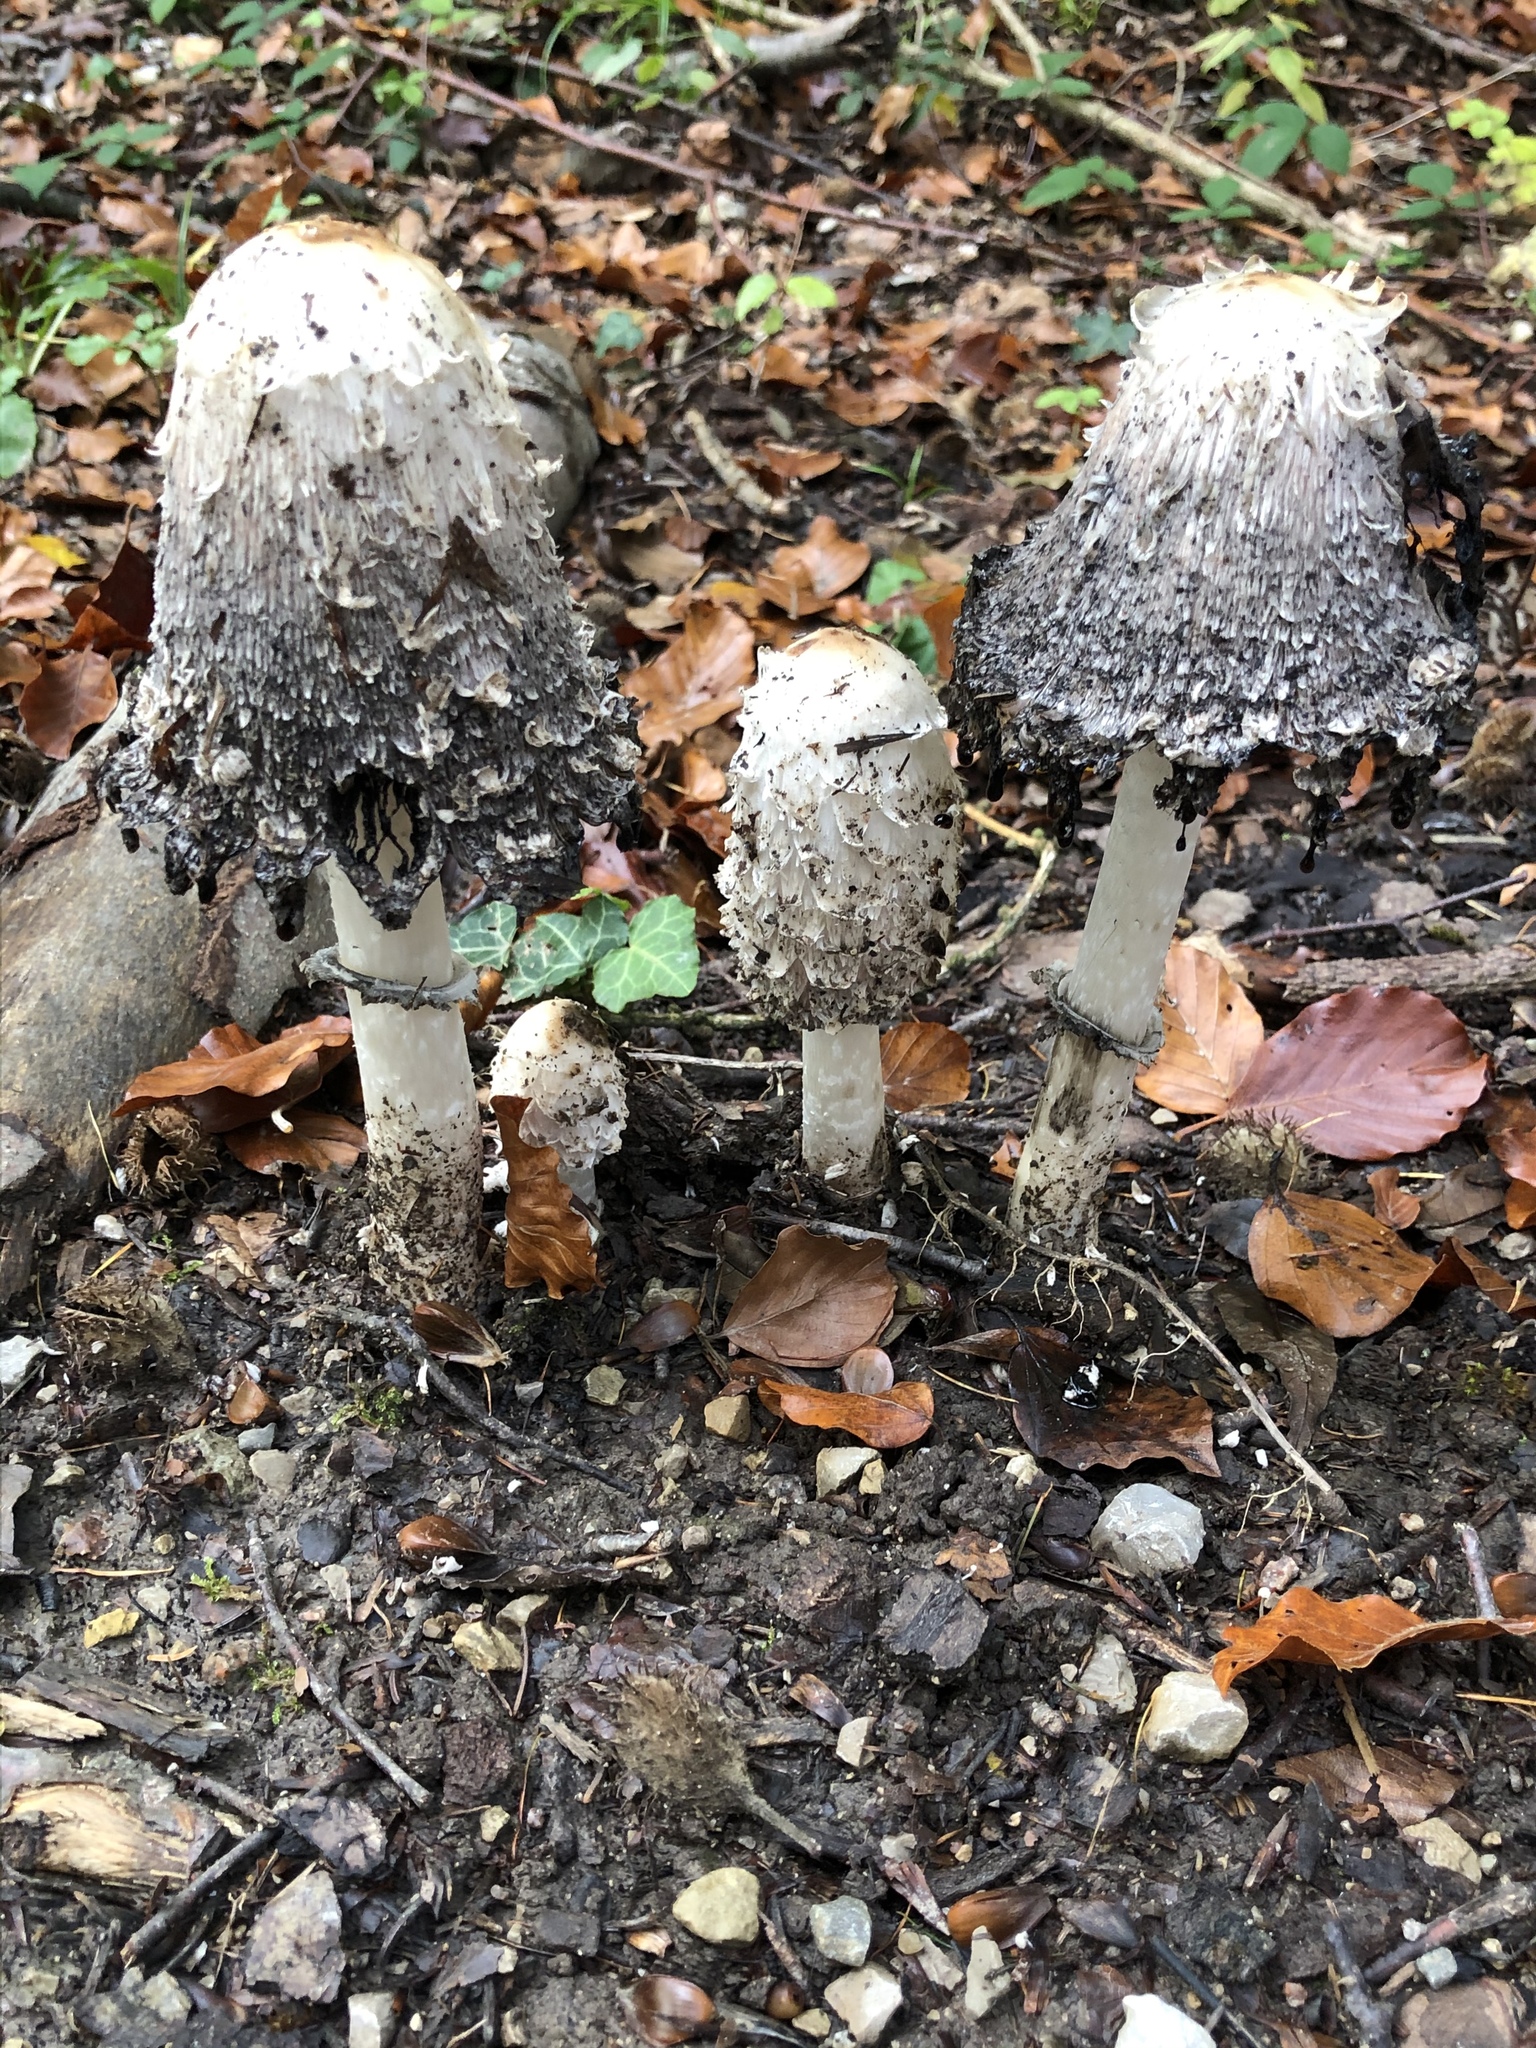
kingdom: Fungi
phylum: Basidiomycota
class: Agaricomycetes
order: Agaricales
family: Agaricaceae
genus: Coprinus
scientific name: Coprinus comatus
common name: Lawyer's wig
